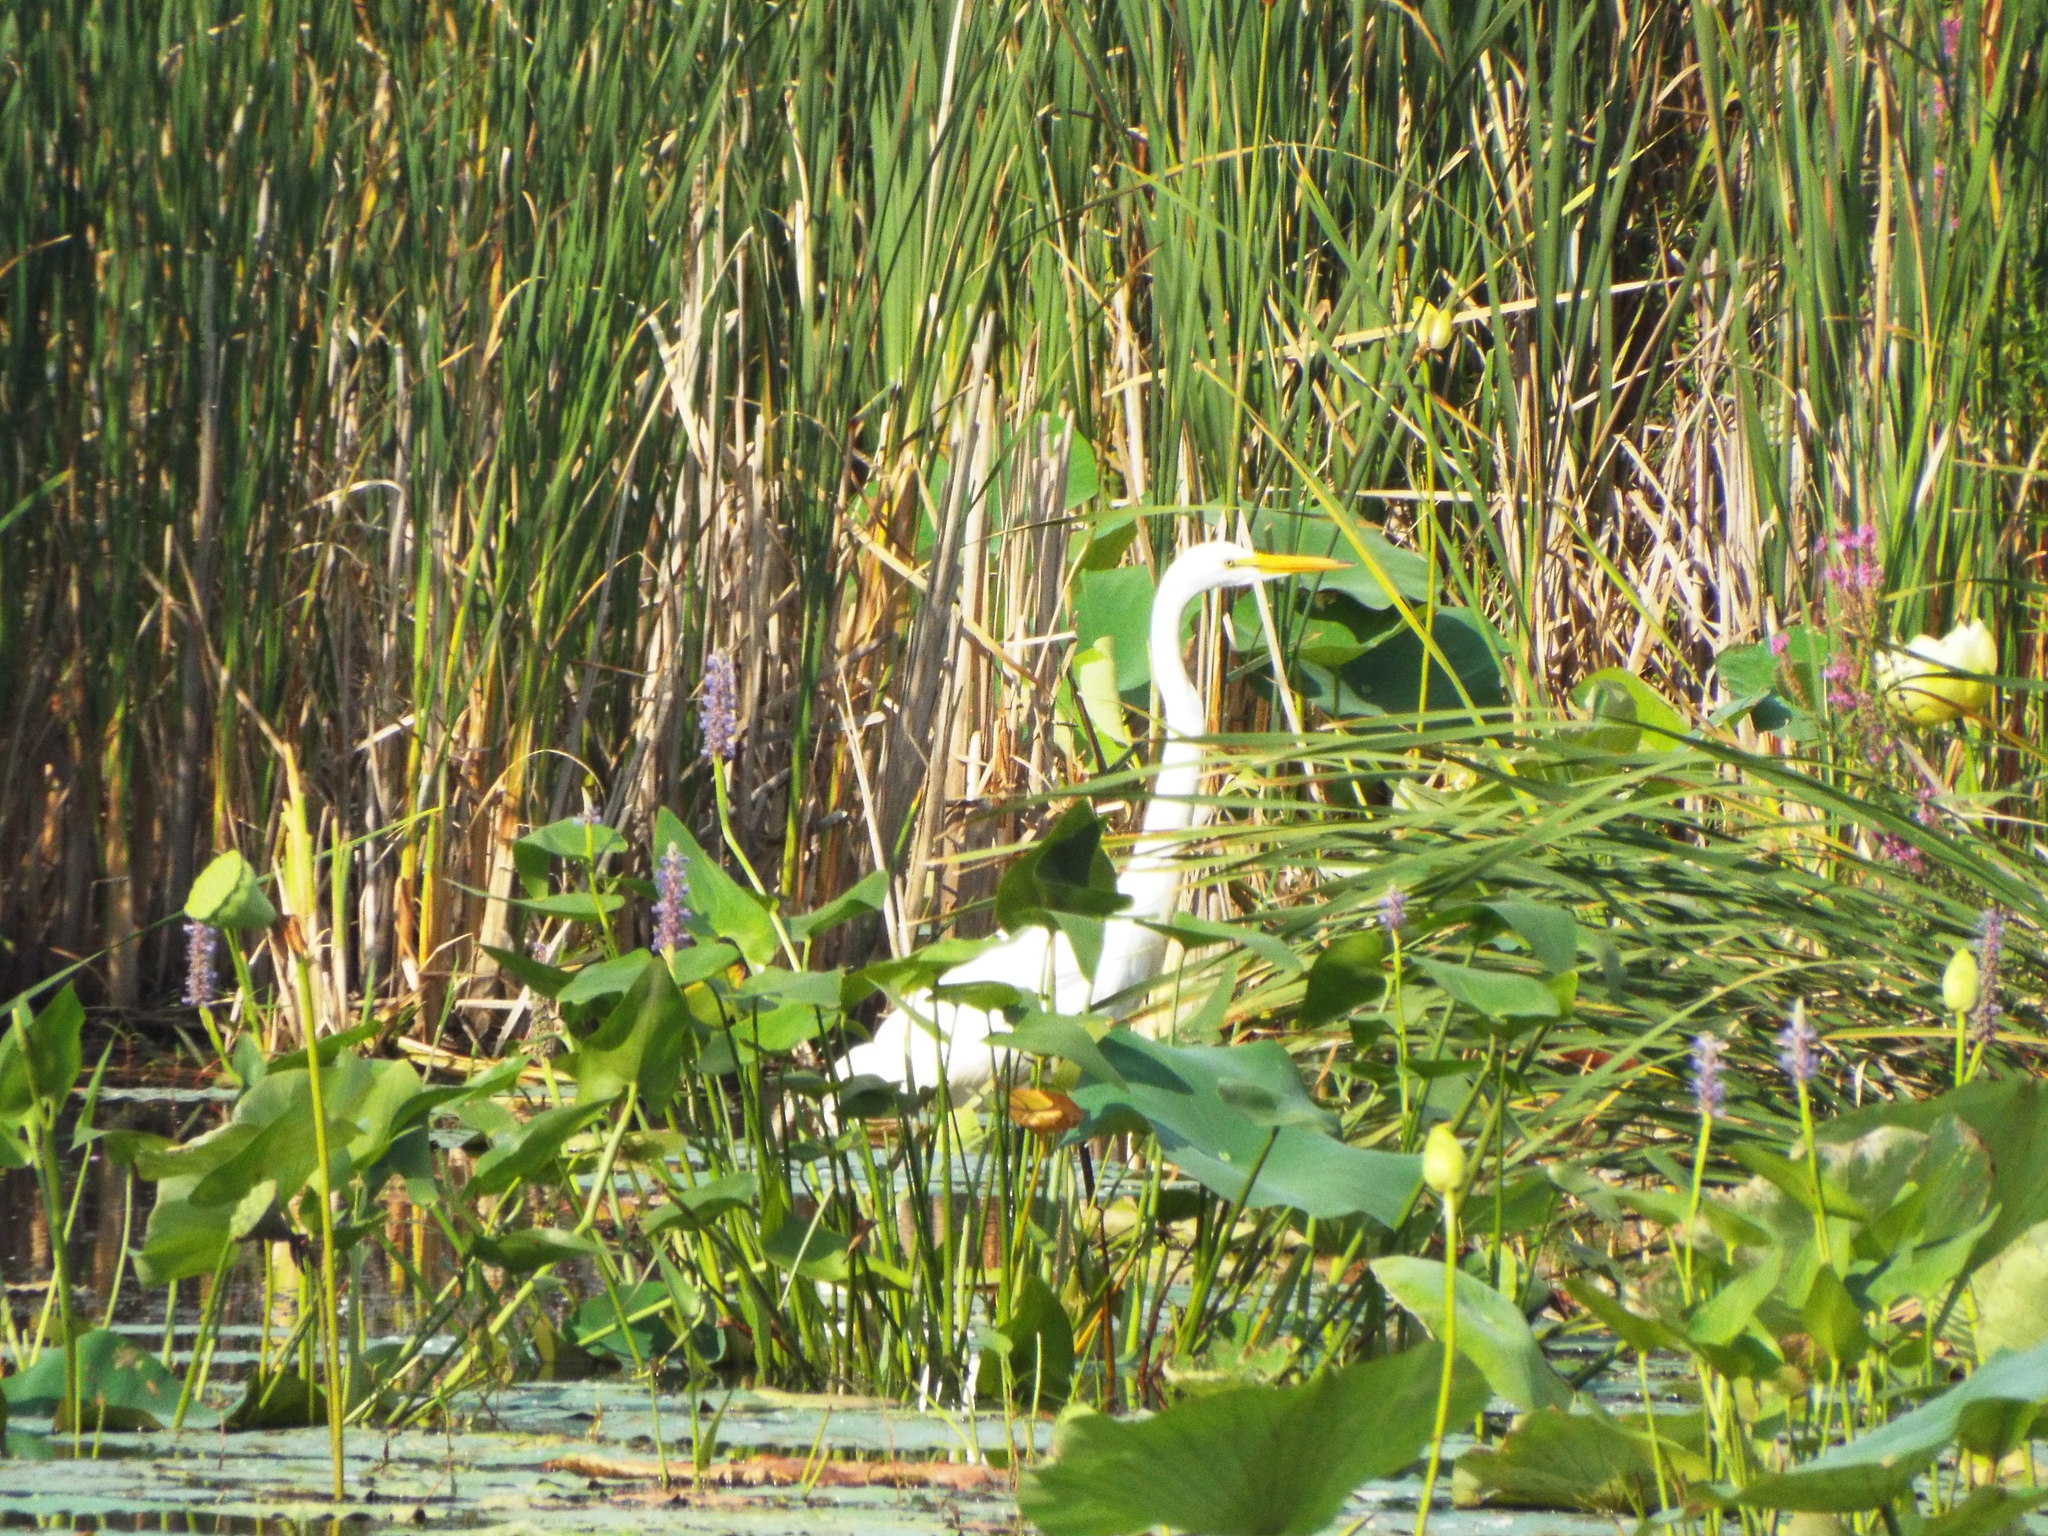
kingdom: Animalia
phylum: Chordata
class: Aves
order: Pelecaniformes
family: Ardeidae
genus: Ardea
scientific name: Ardea alba
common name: Great egret
